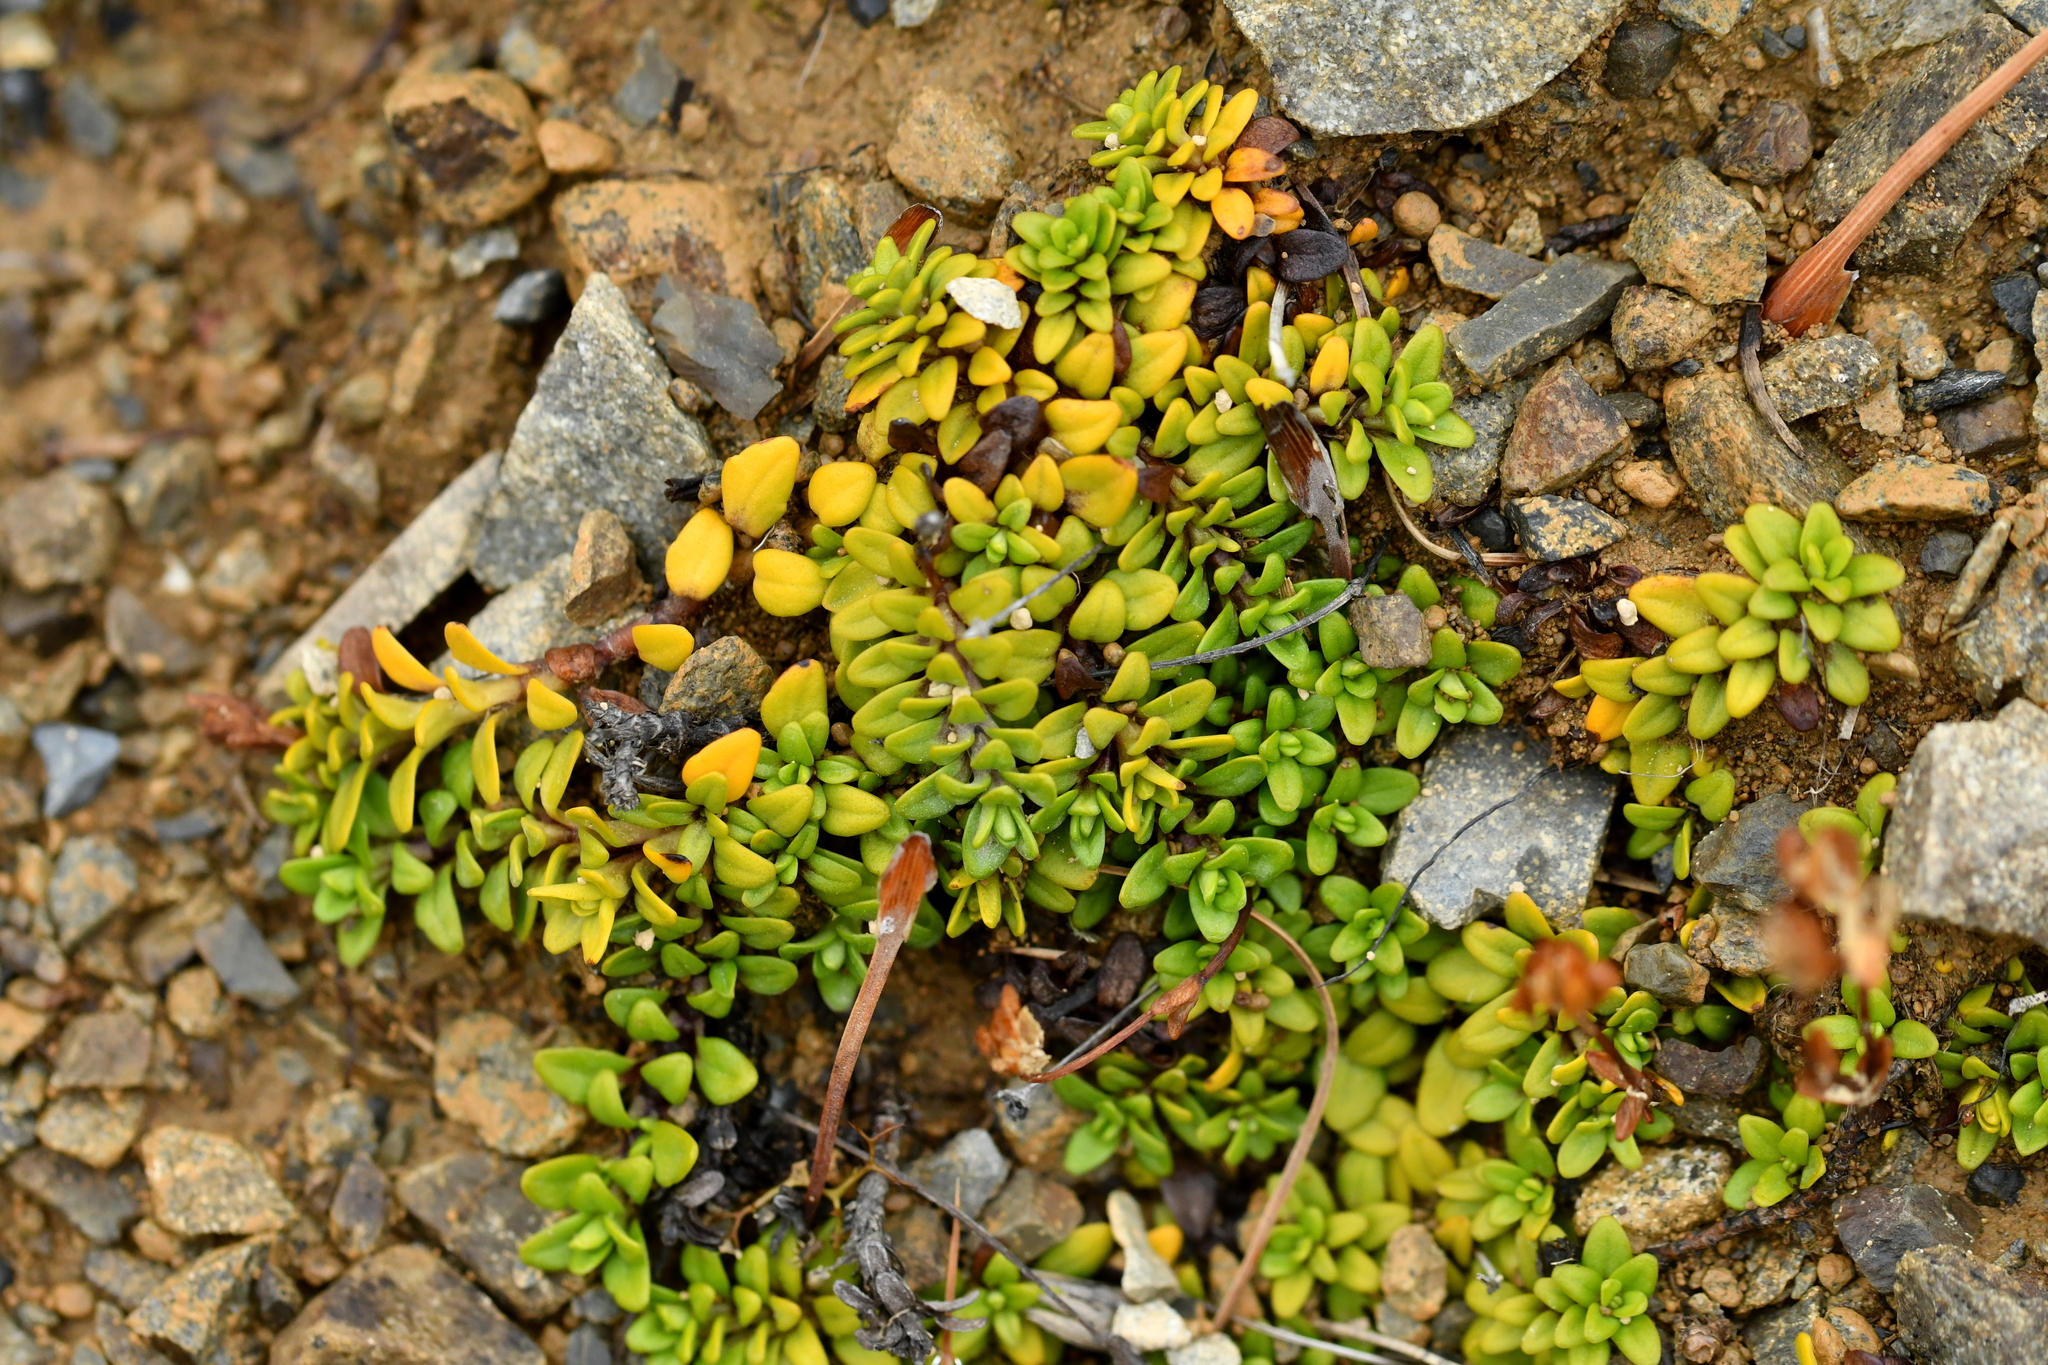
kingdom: Plantae
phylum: Tracheophyta
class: Magnoliopsida
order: Lamiales
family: Plantaginaceae
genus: Ourisia
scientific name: Ourisia caespitosa
